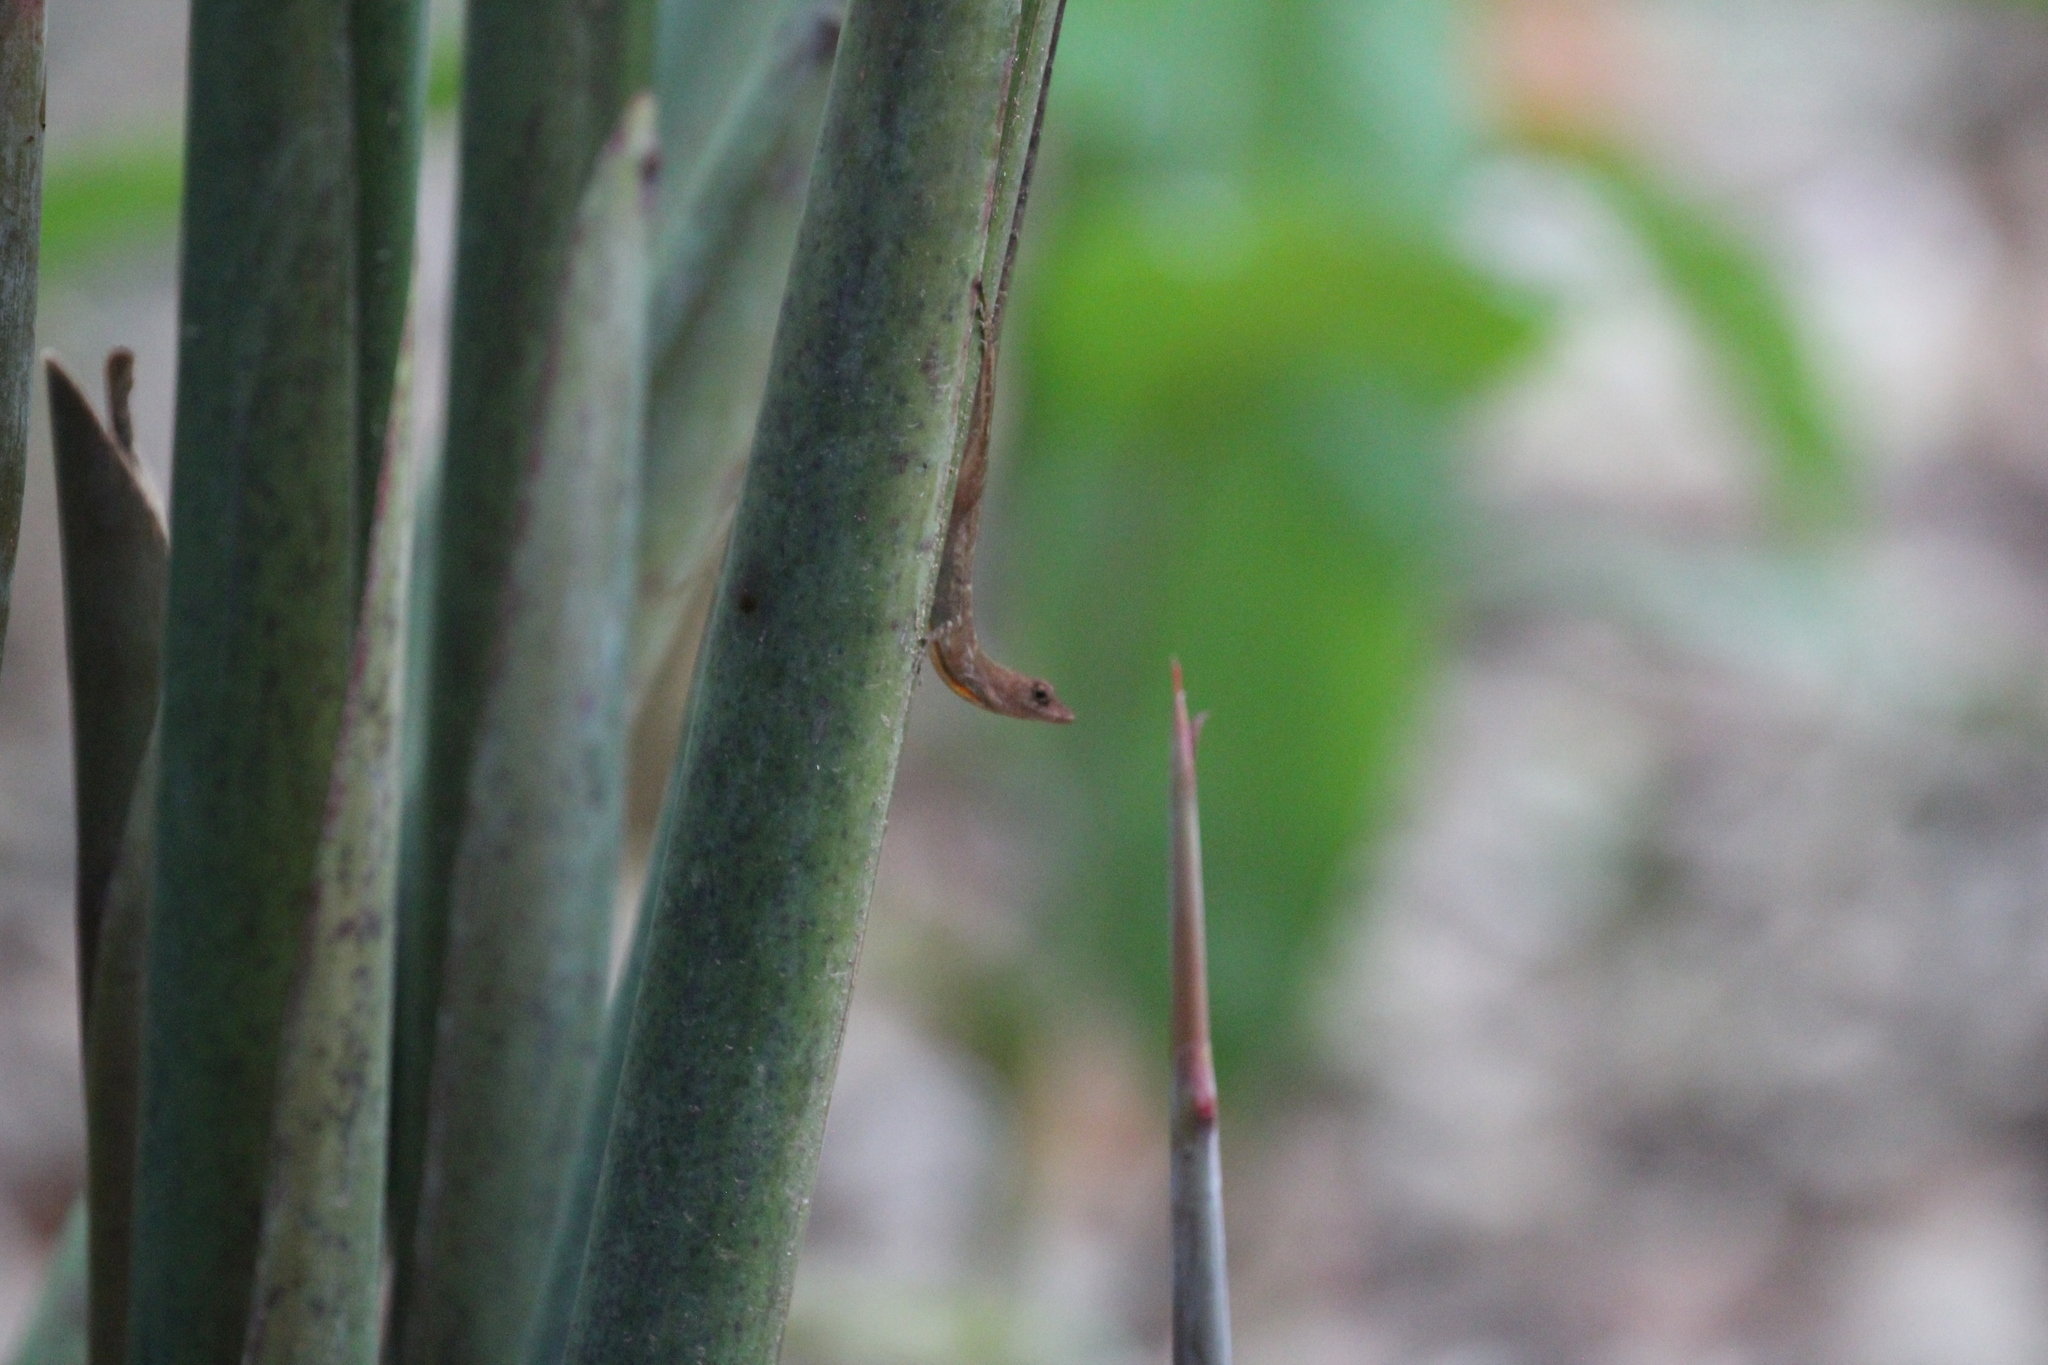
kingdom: Animalia
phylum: Chordata
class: Squamata
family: Dactyloidae
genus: Anolis
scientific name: Anolis osa
